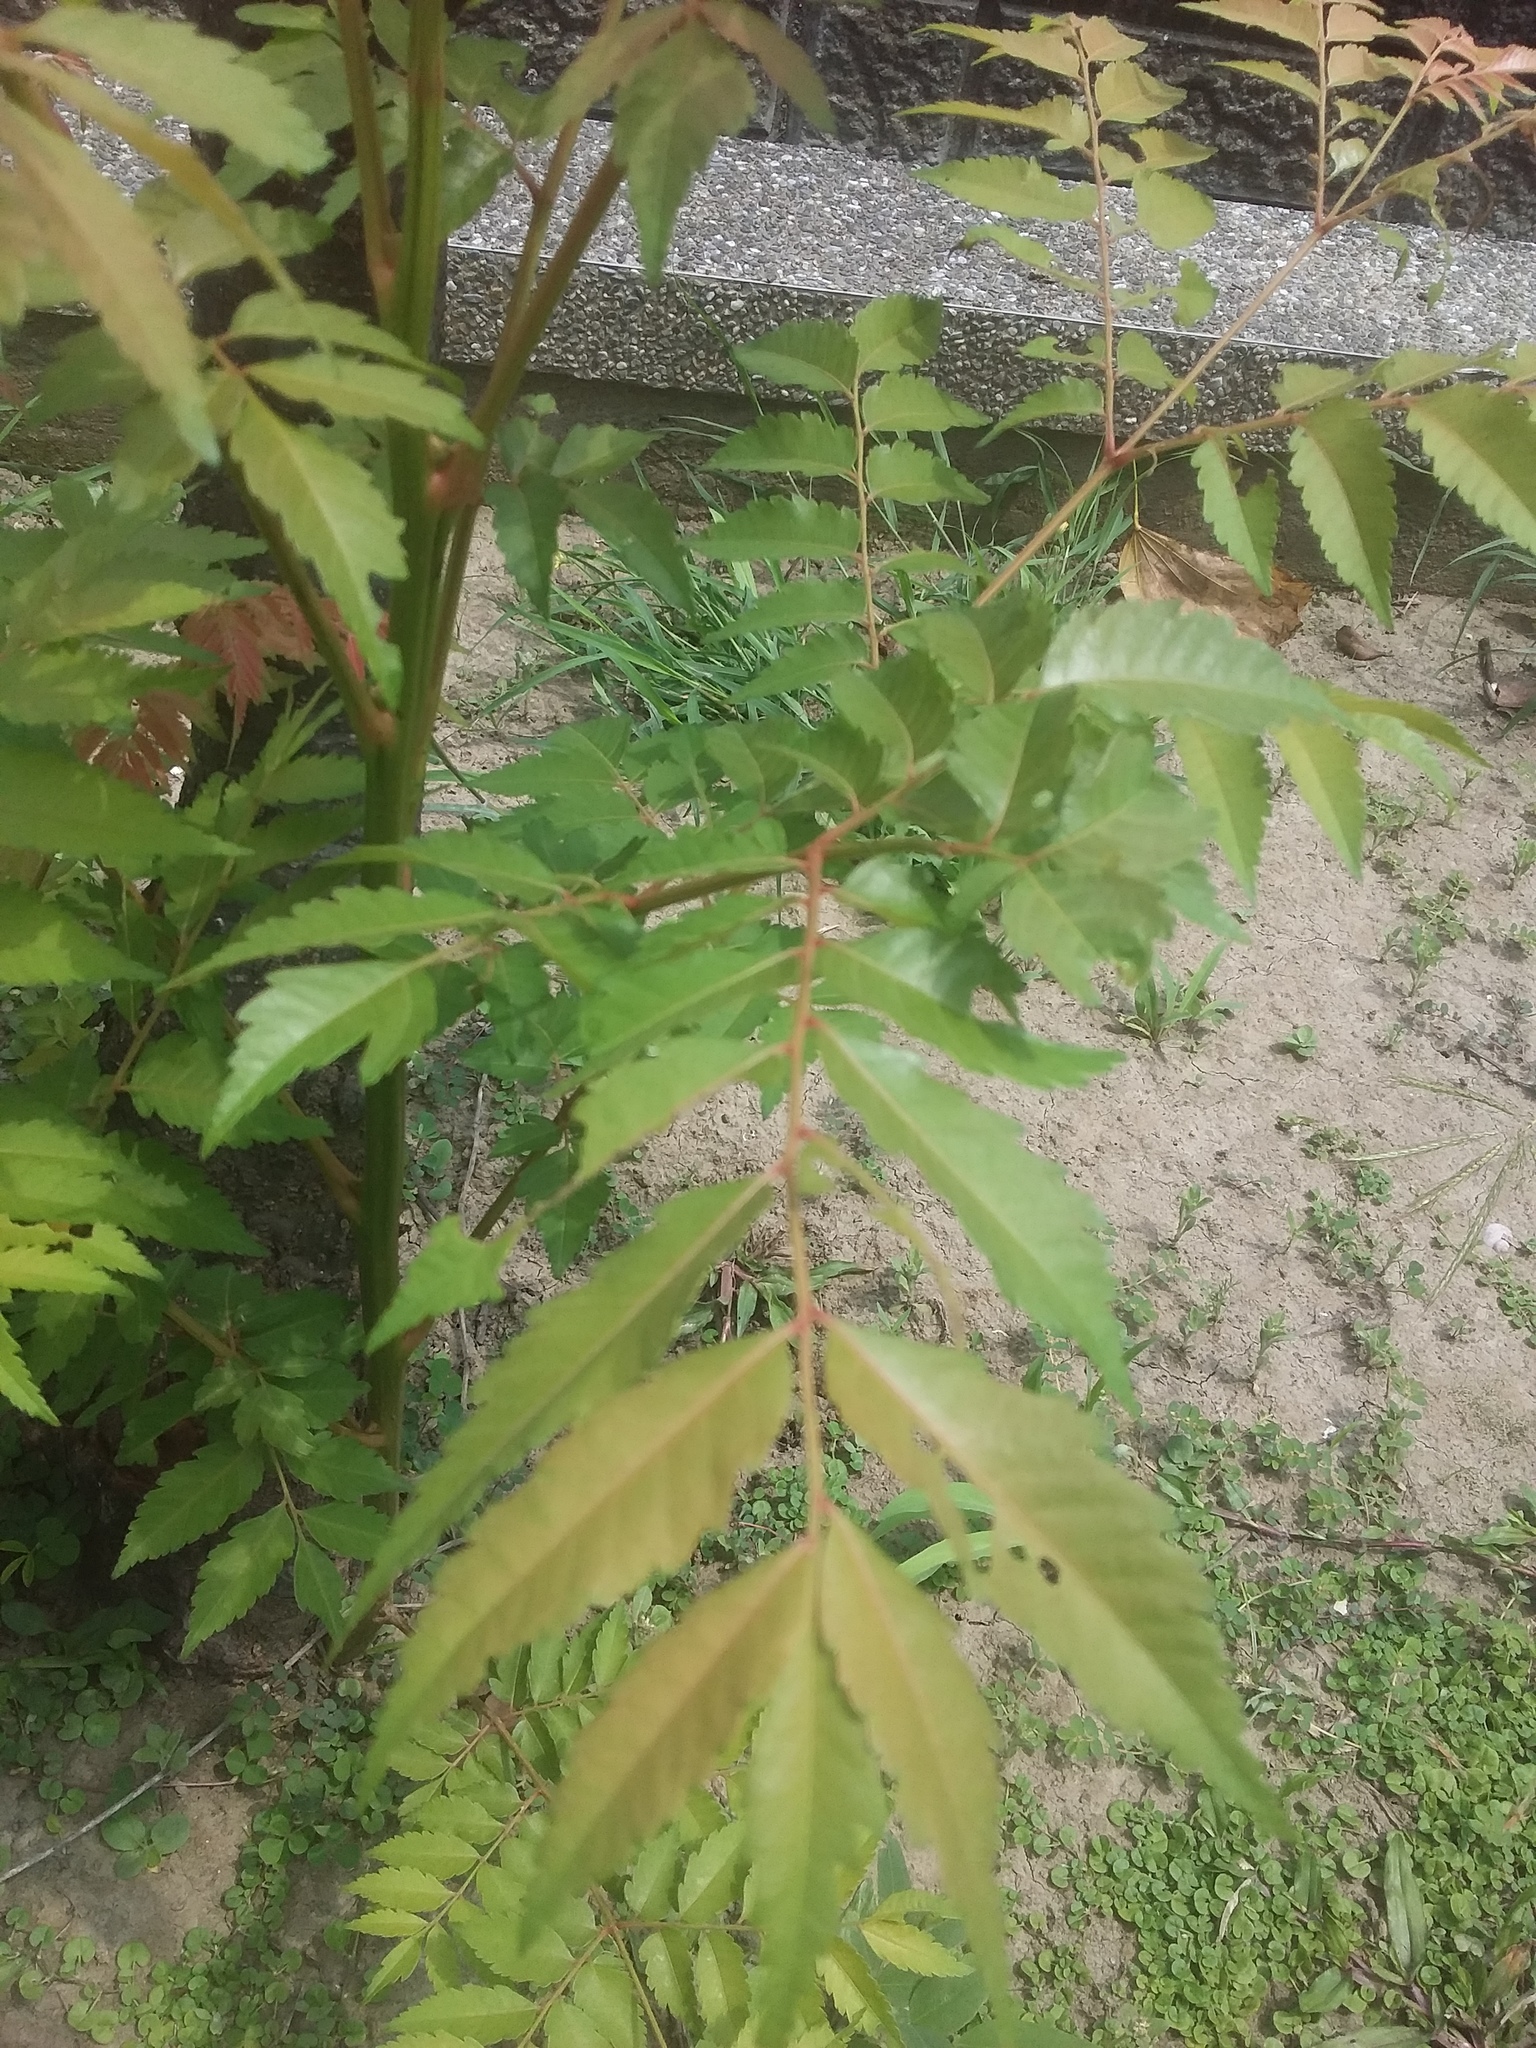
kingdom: Plantae
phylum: Tracheophyta
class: Magnoliopsida
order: Sapindales
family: Sapindaceae
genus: Koelreuteria
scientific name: Koelreuteria elegans
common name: Chinese flame tree
